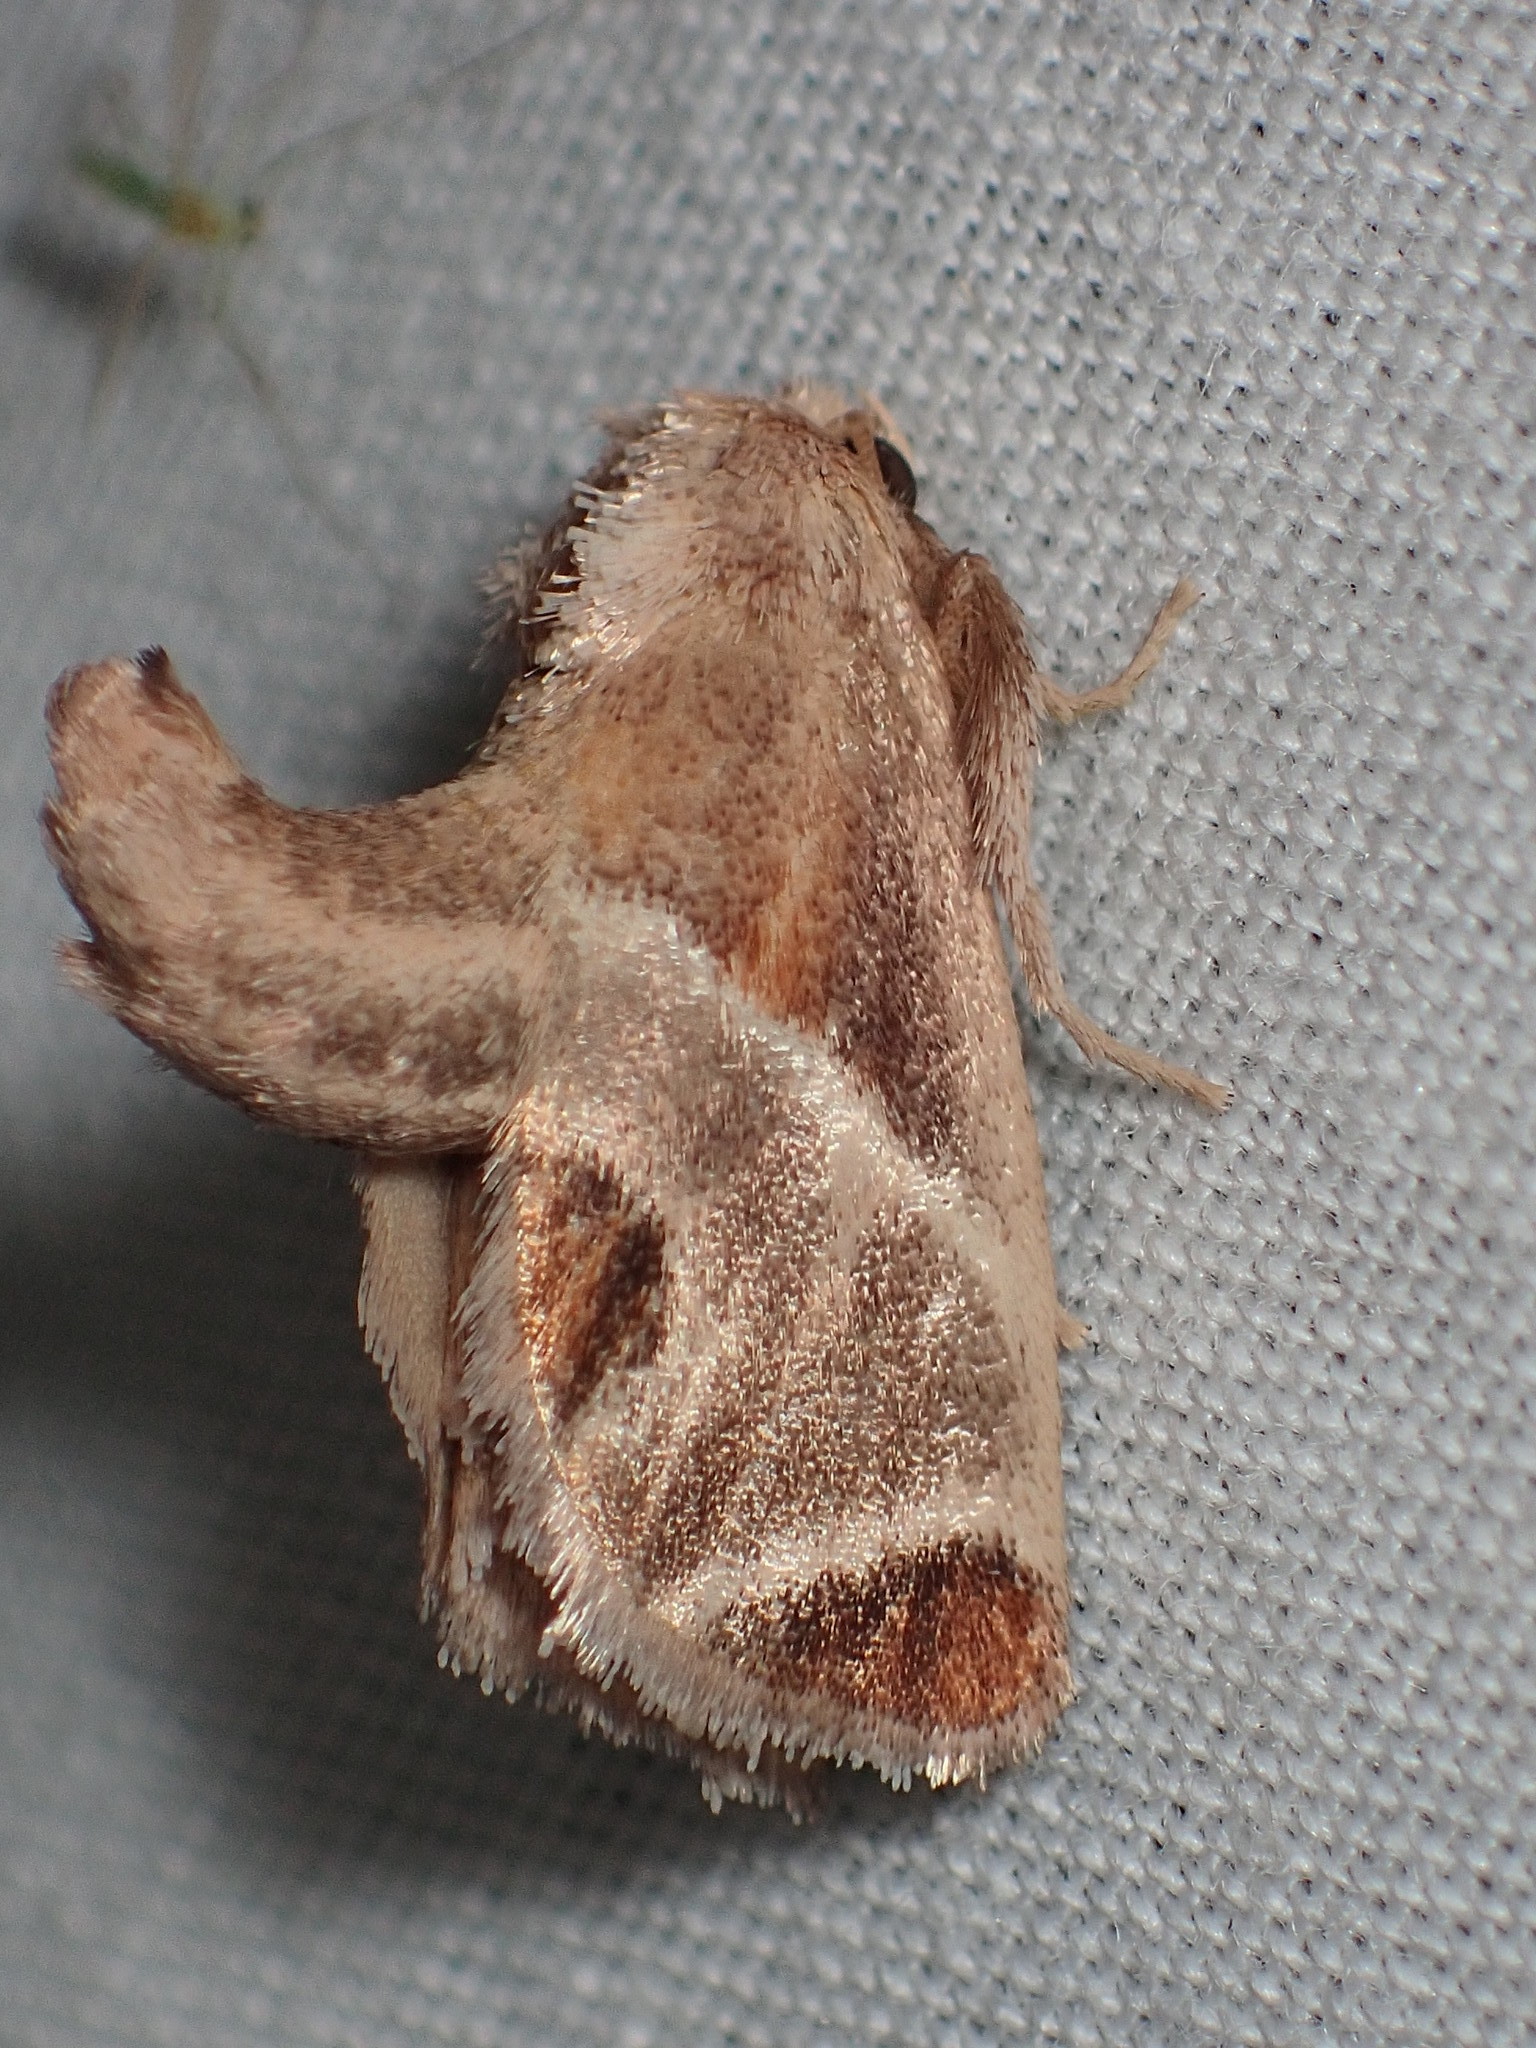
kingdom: Animalia
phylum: Arthropoda
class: Insecta
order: Lepidoptera
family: Limacodidae
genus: Apoda
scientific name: Apoda biguttata
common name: Shagreened slug moth
